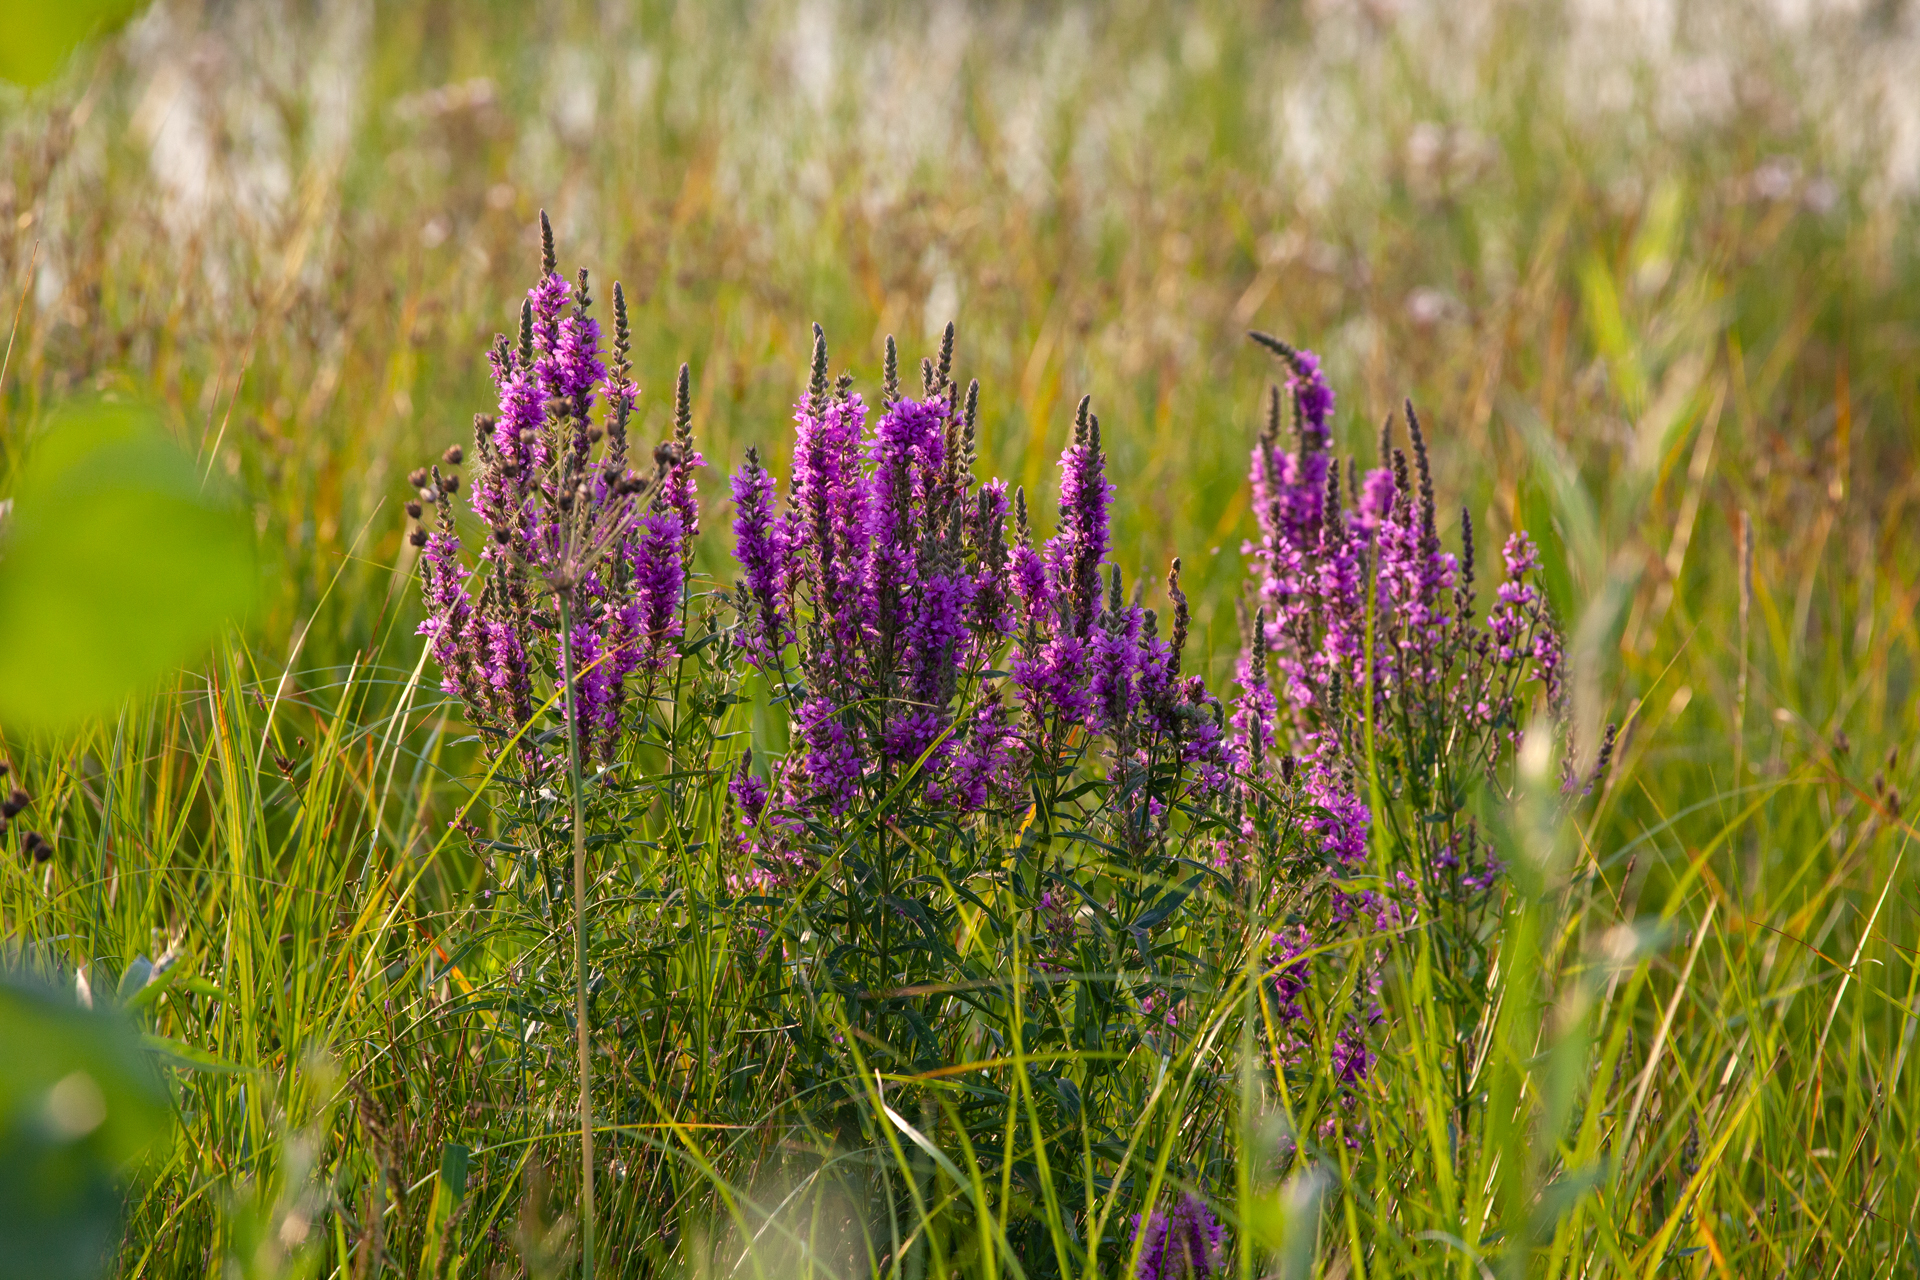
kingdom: Plantae
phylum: Tracheophyta
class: Magnoliopsida
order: Myrtales
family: Lythraceae
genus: Lythrum
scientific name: Lythrum salicaria
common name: Purple loosestrife
